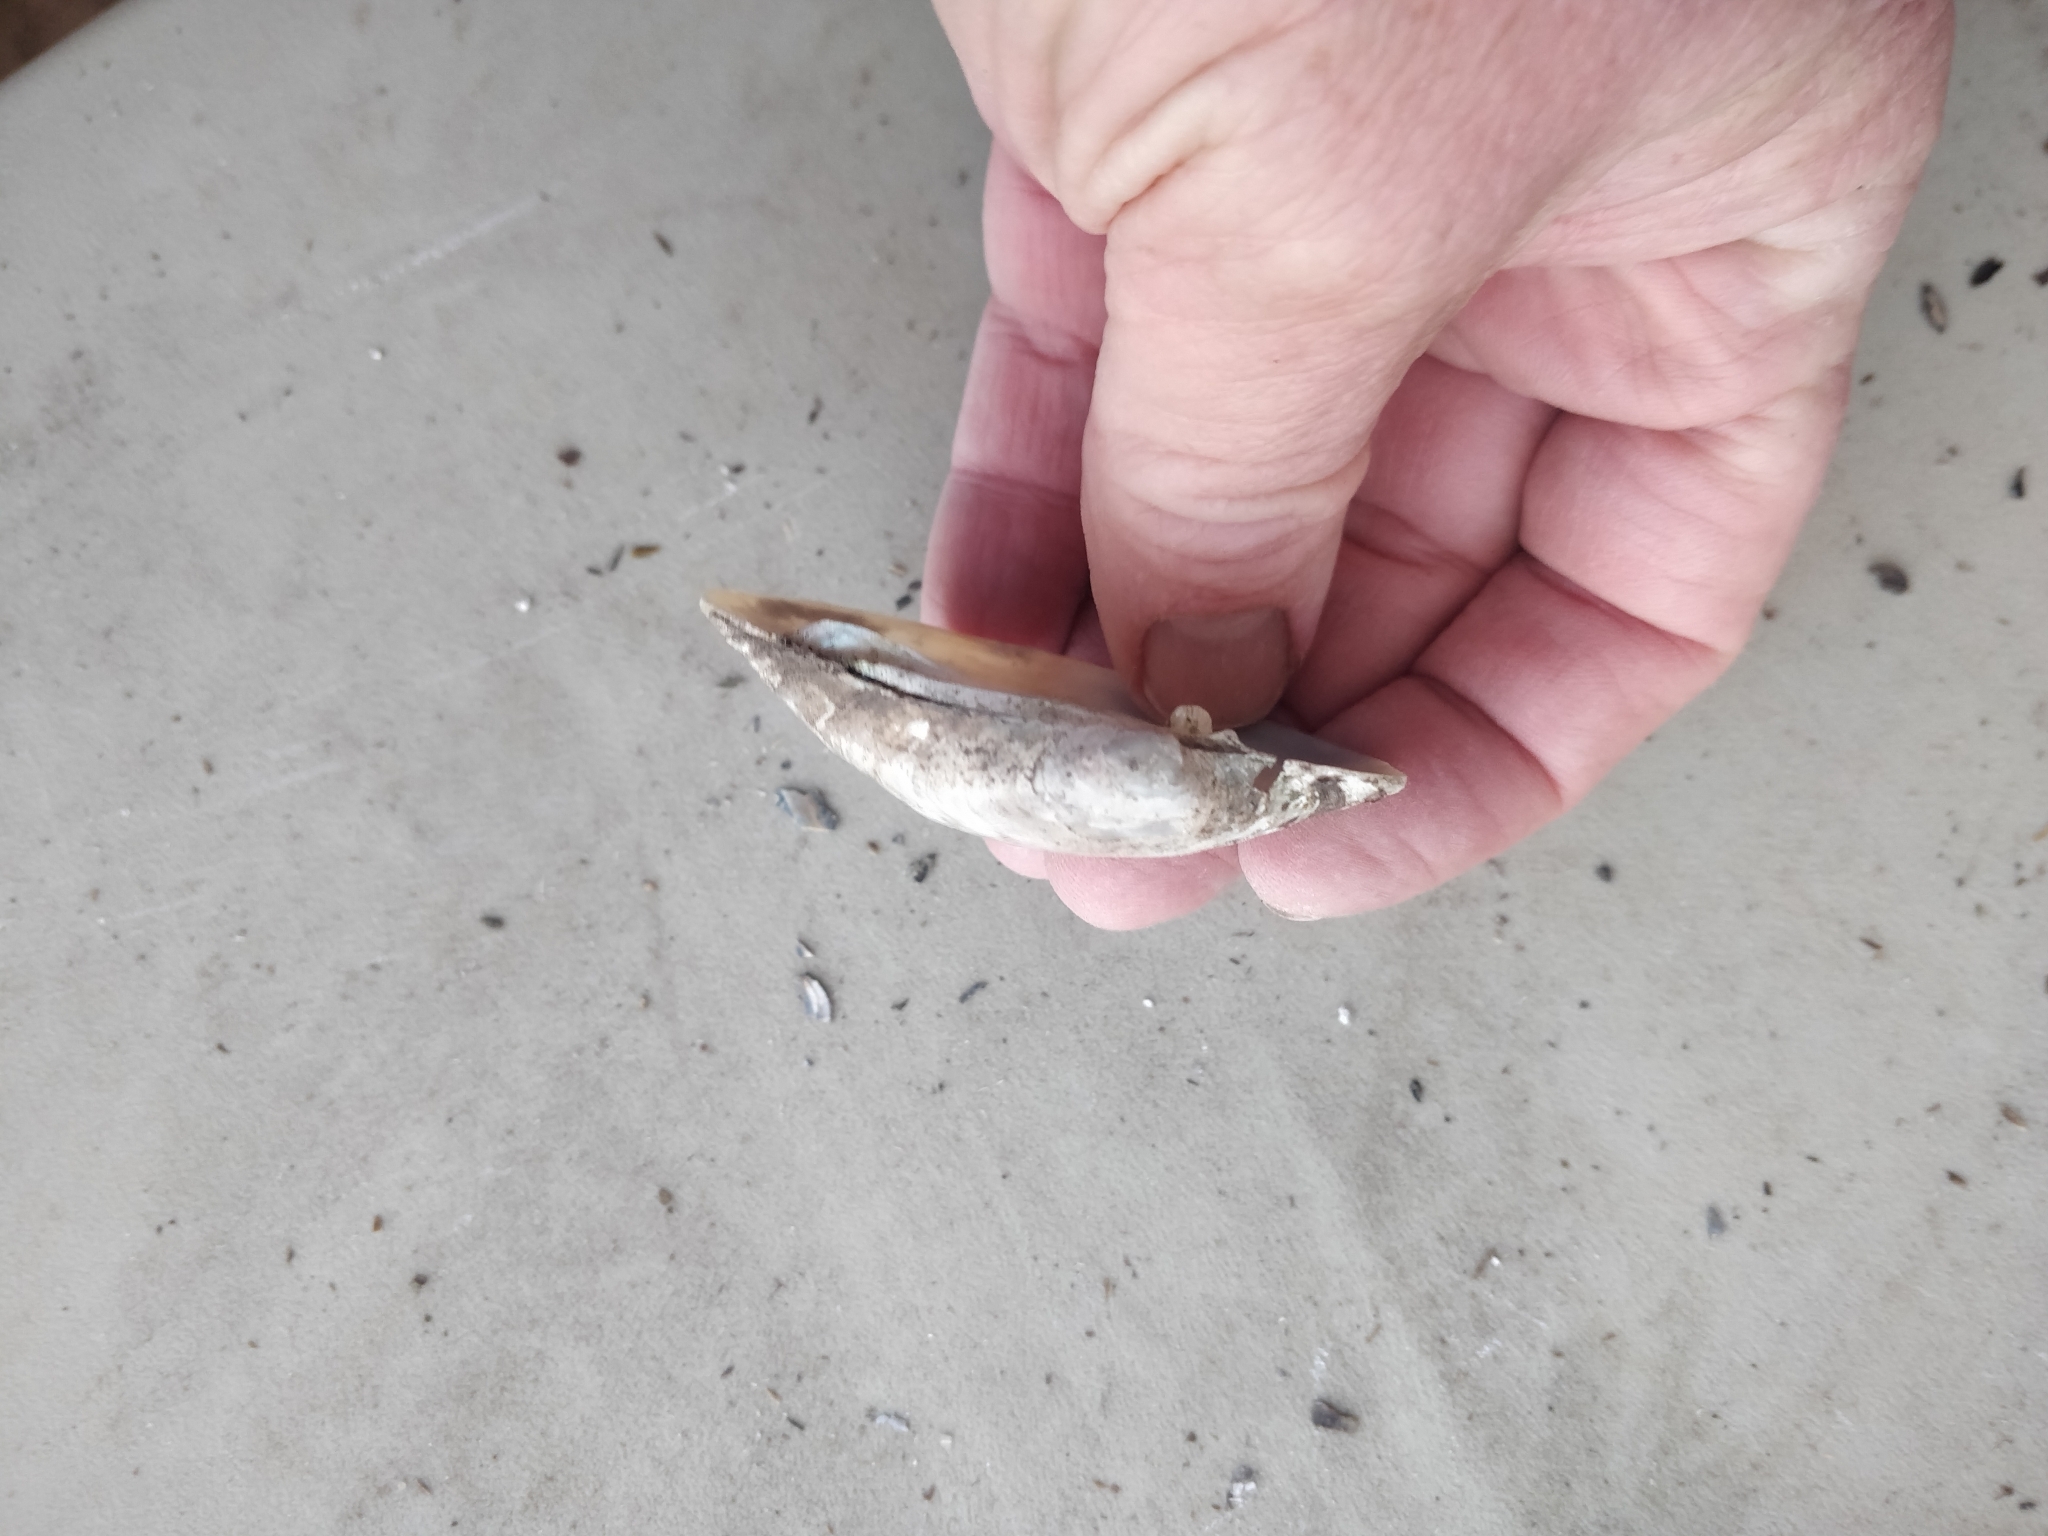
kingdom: Animalia
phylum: Mollusca
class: Bivalvia
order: Unionida
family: Unionidae
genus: Lampsilis
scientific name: Lampsilis cardium
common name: Plain pocketbook
